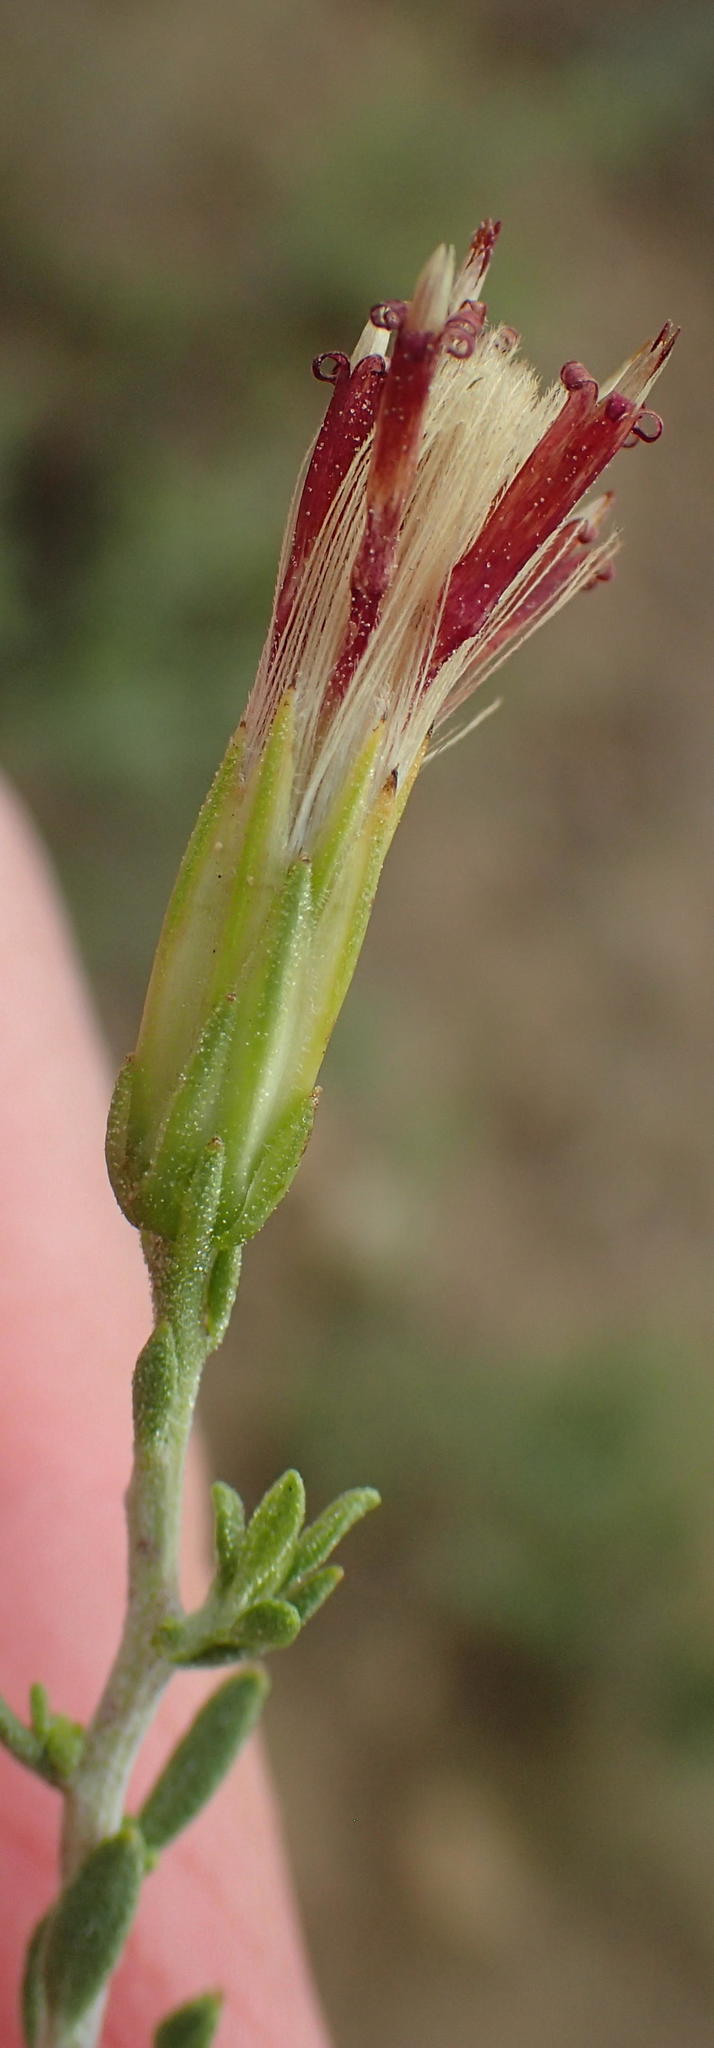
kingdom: Plantae
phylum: Tracheophyta
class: Magnoliopsida
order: Asterales
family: Asteraceae
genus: Pegolettia
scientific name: Pegolettia retrofracta
